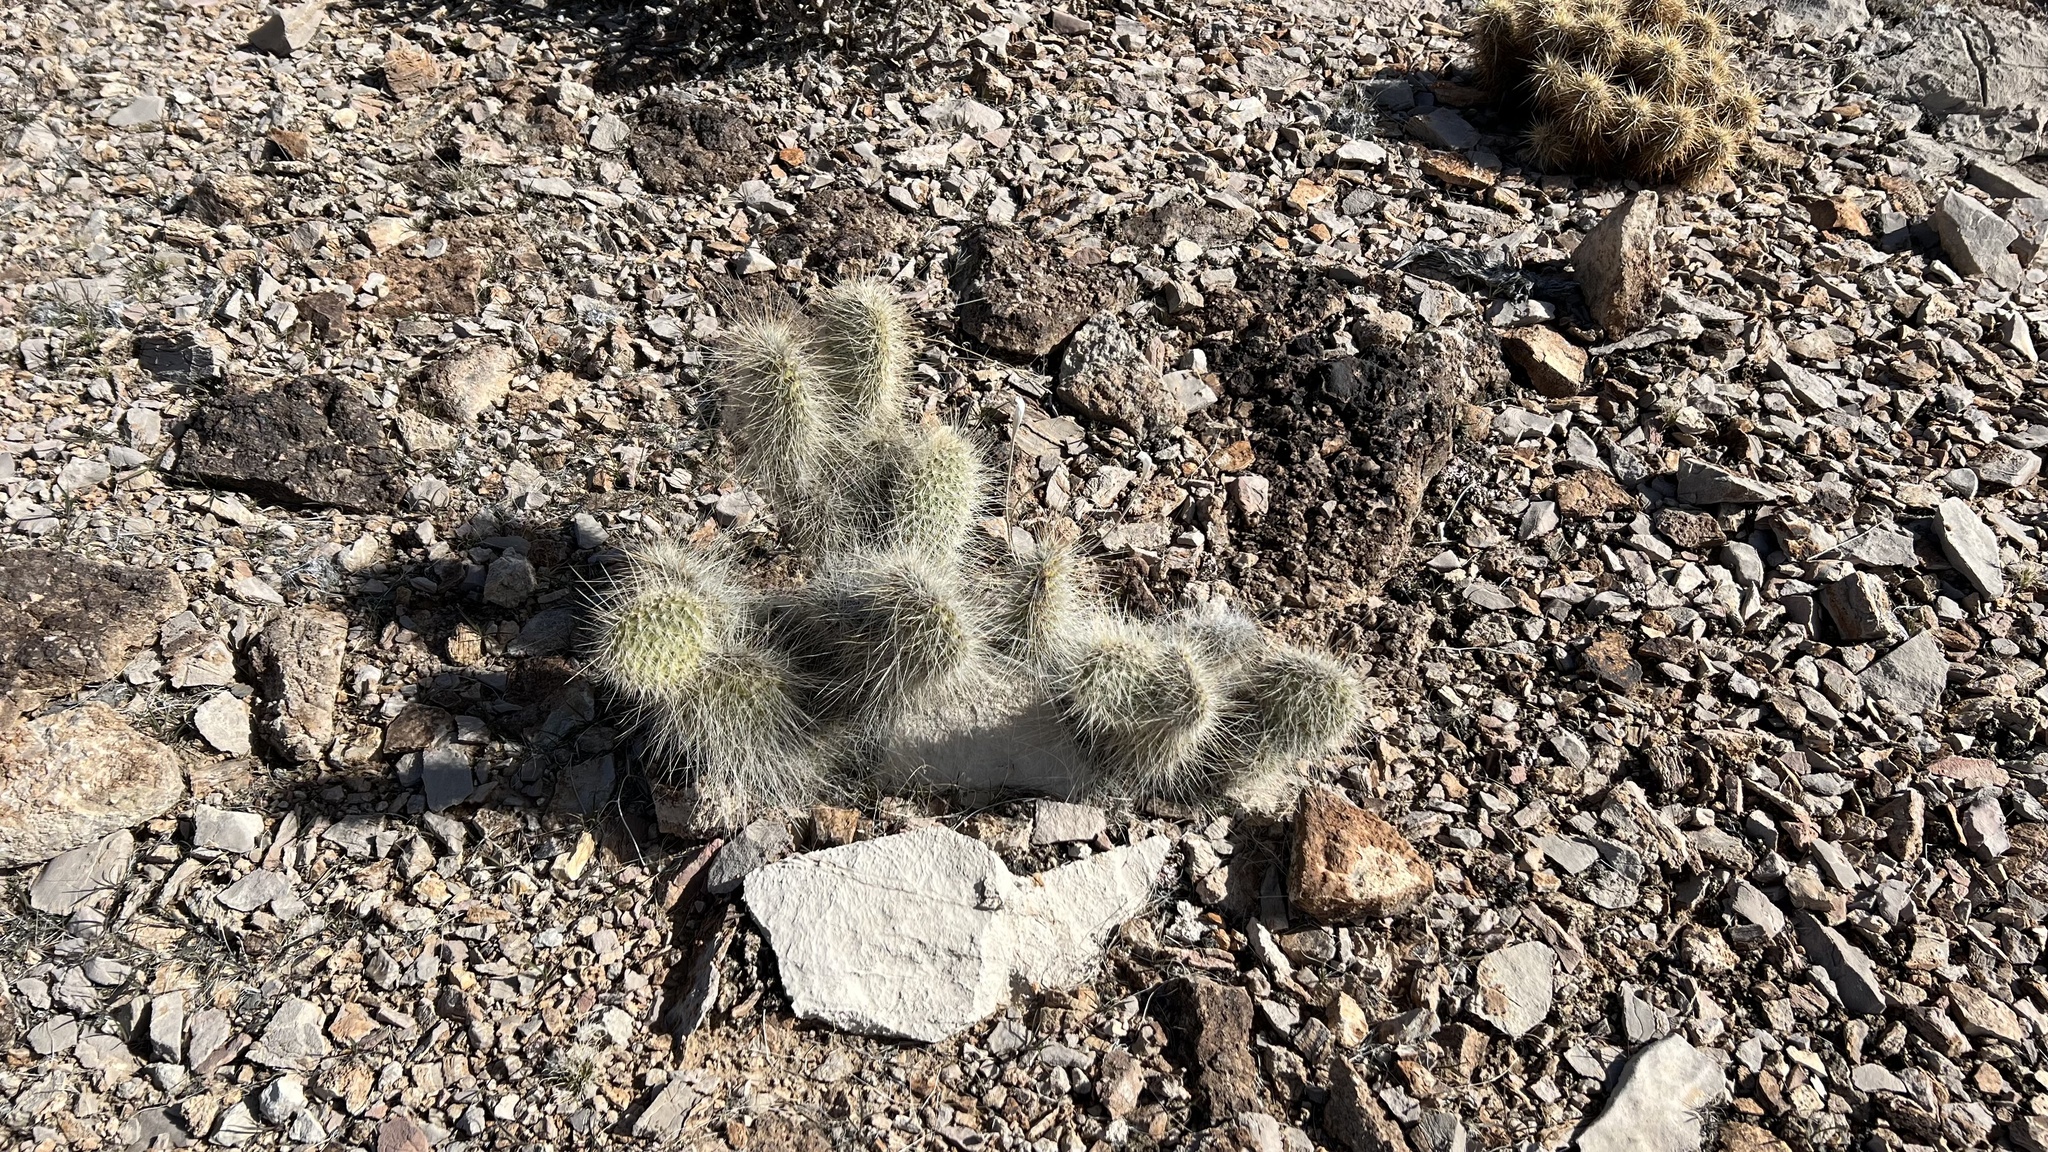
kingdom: Plantae
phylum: Tracheophyta
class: Magnoliopsida
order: Caryophyllales
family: Cactaceae
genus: Opuntia
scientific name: Opuntia polyacantha
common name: Plains prickly-pear
